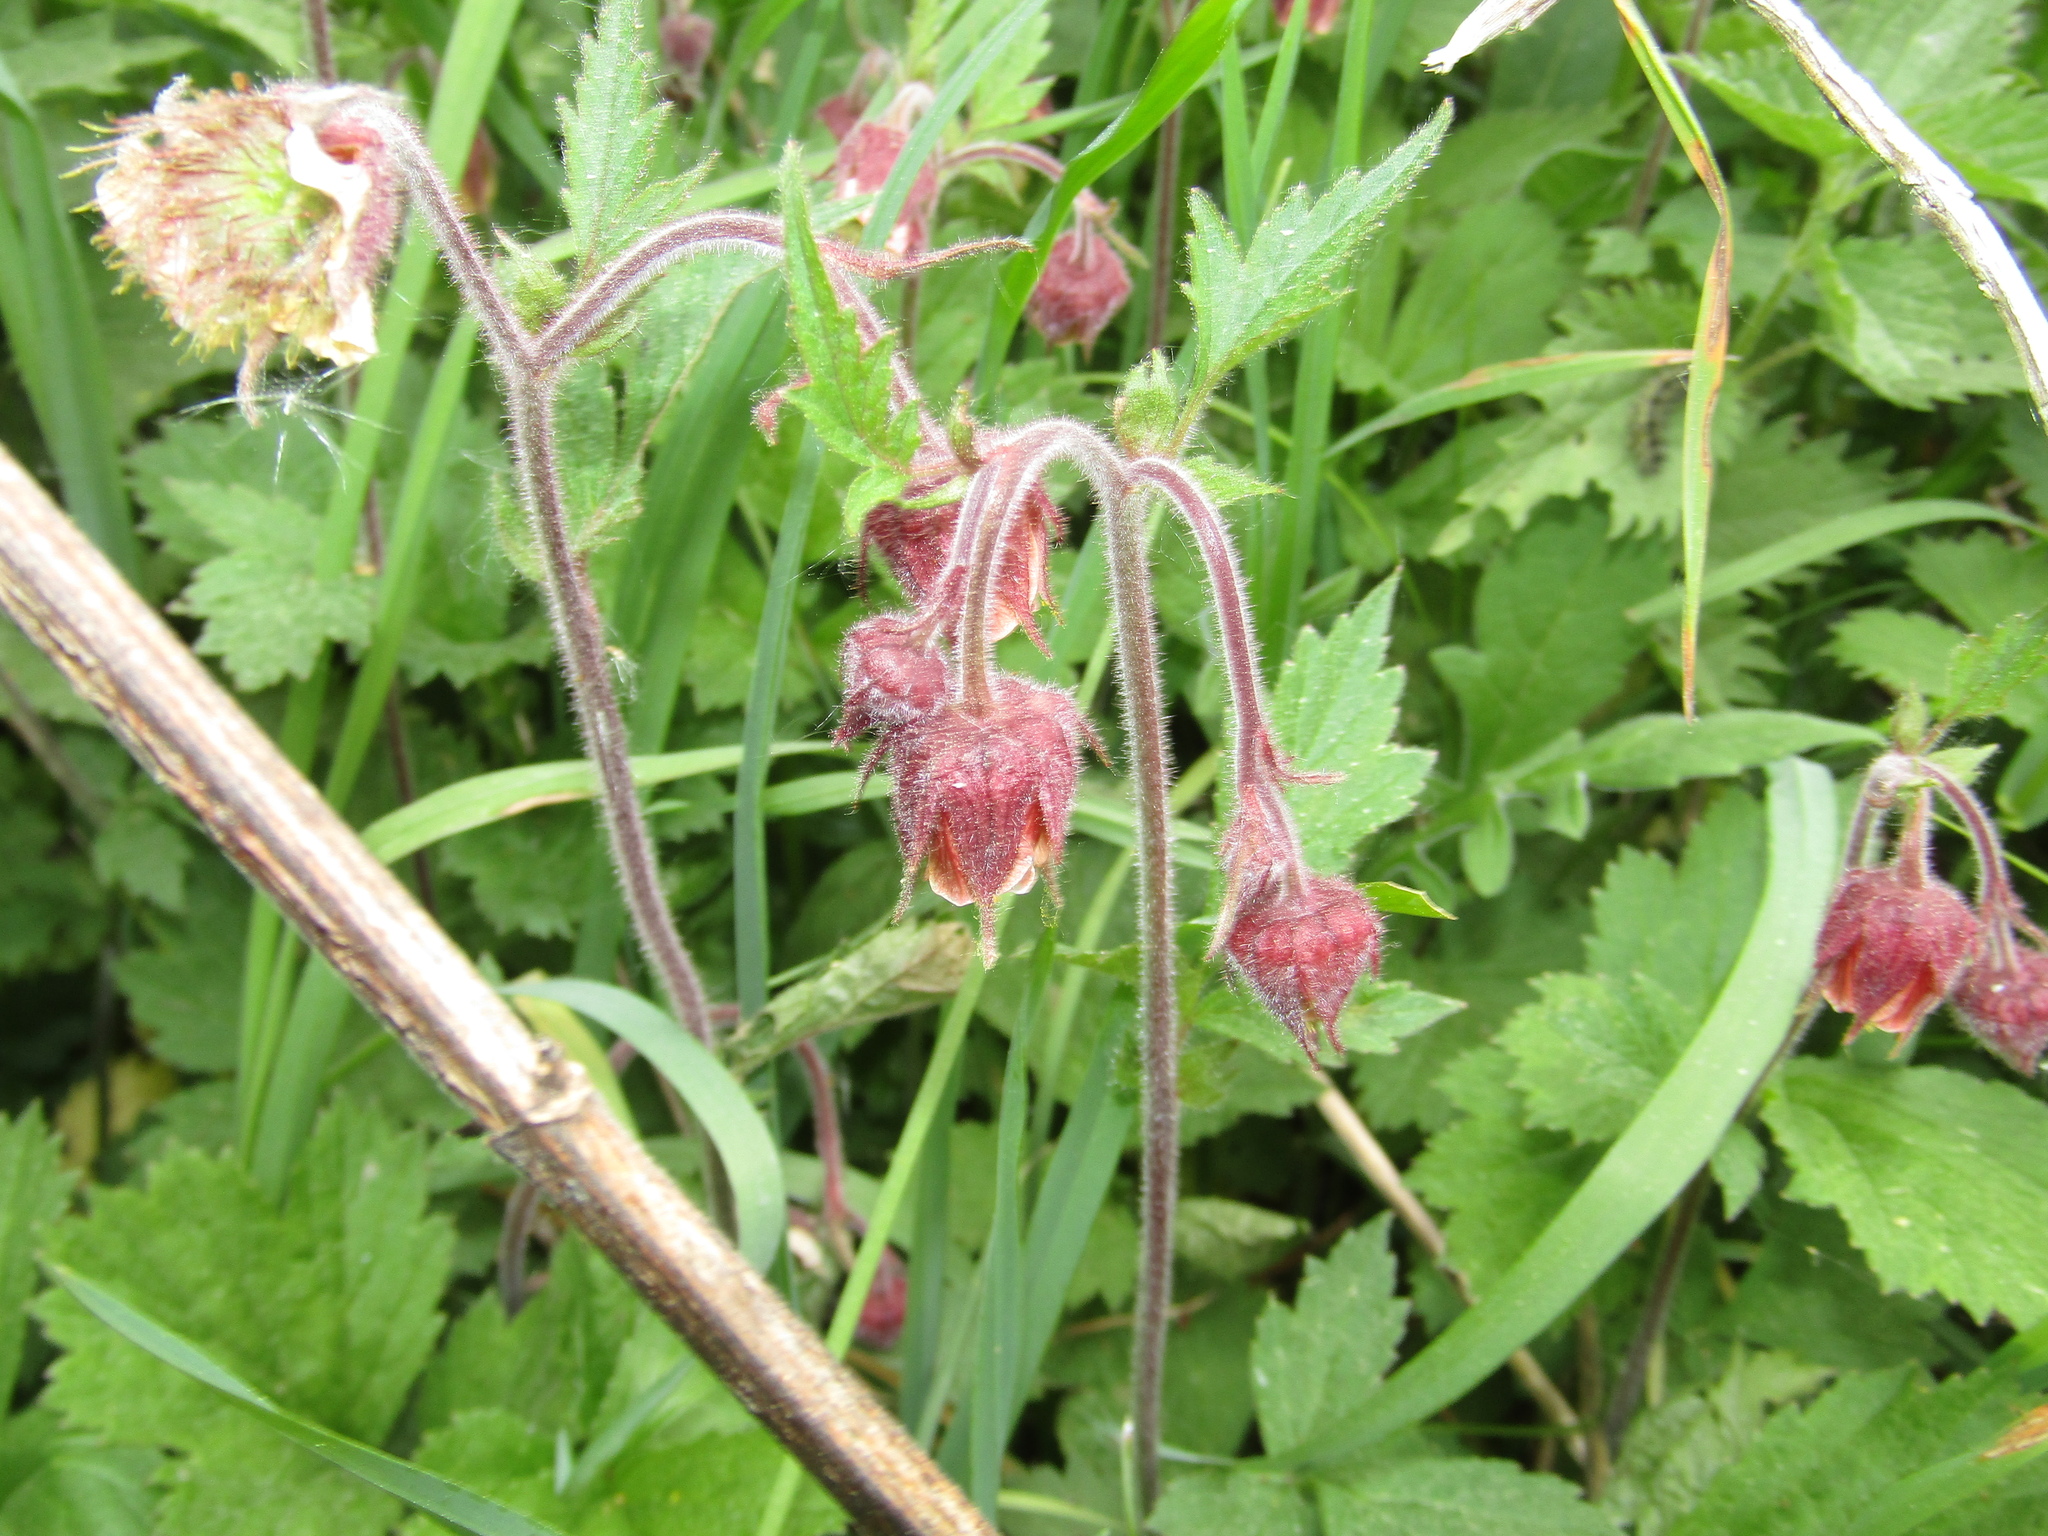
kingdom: Plantae
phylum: Tracheophyta
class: Magnoliopsida
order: Rosales
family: Rosaceae
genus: Geum
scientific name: Geum rivale
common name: Water avens
